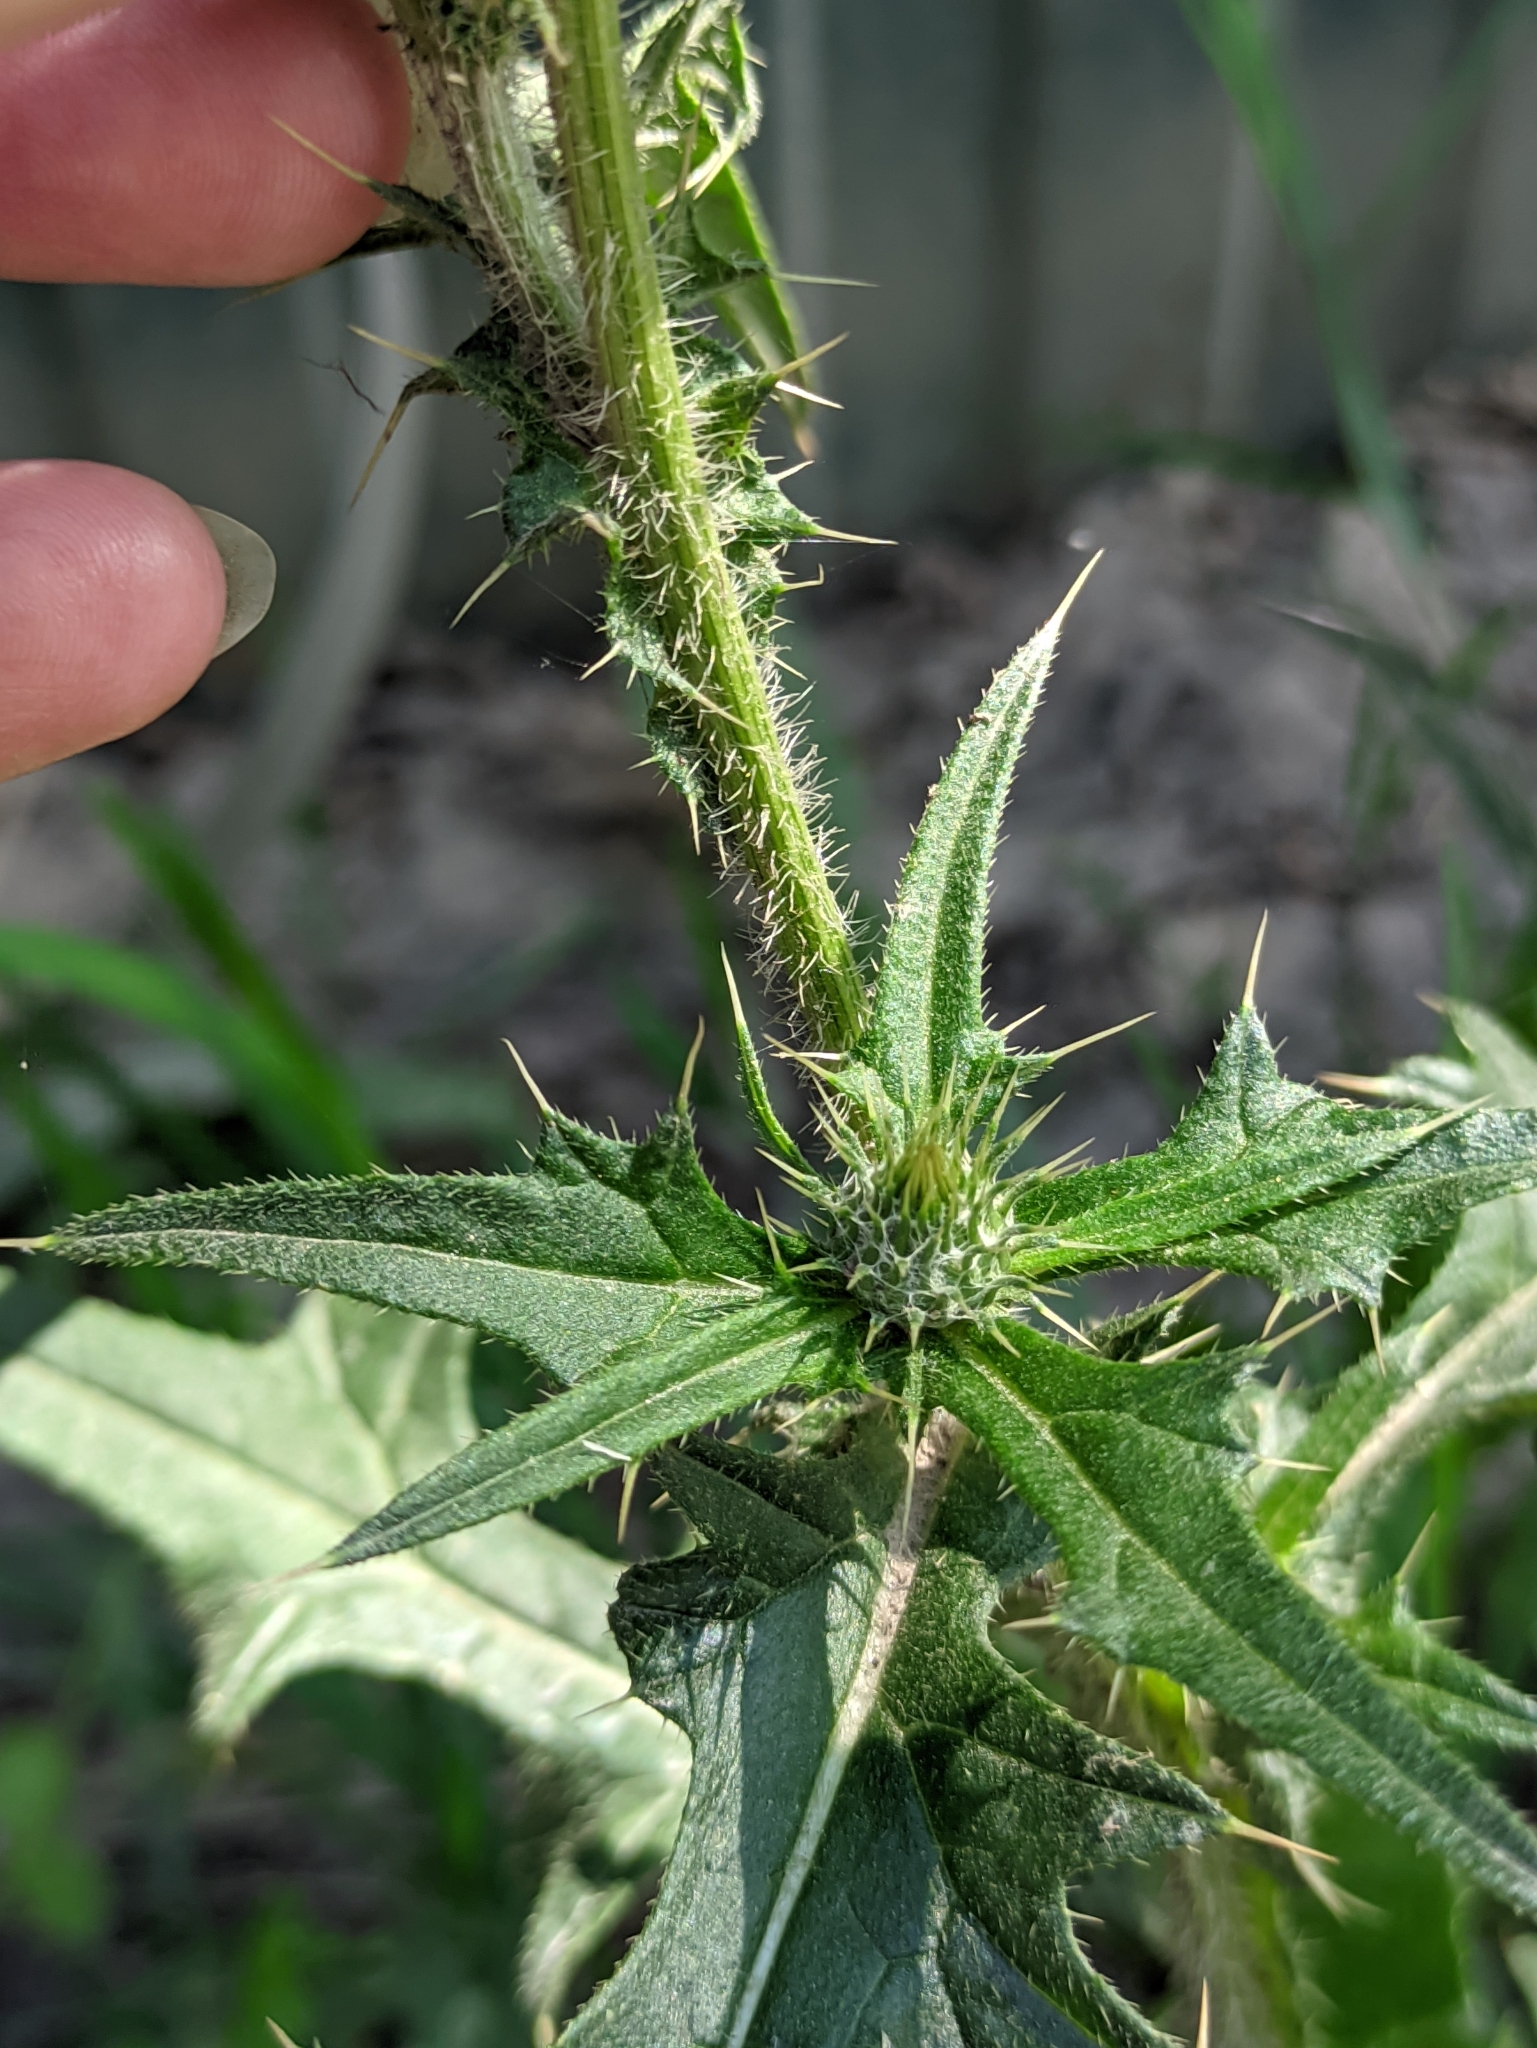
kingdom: Plantae
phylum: Tracheophyta
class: Magnoliopsida
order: Asterales
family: Asteraceae
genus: Cirsium
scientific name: Cirsium vulgare
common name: Bull thistle
